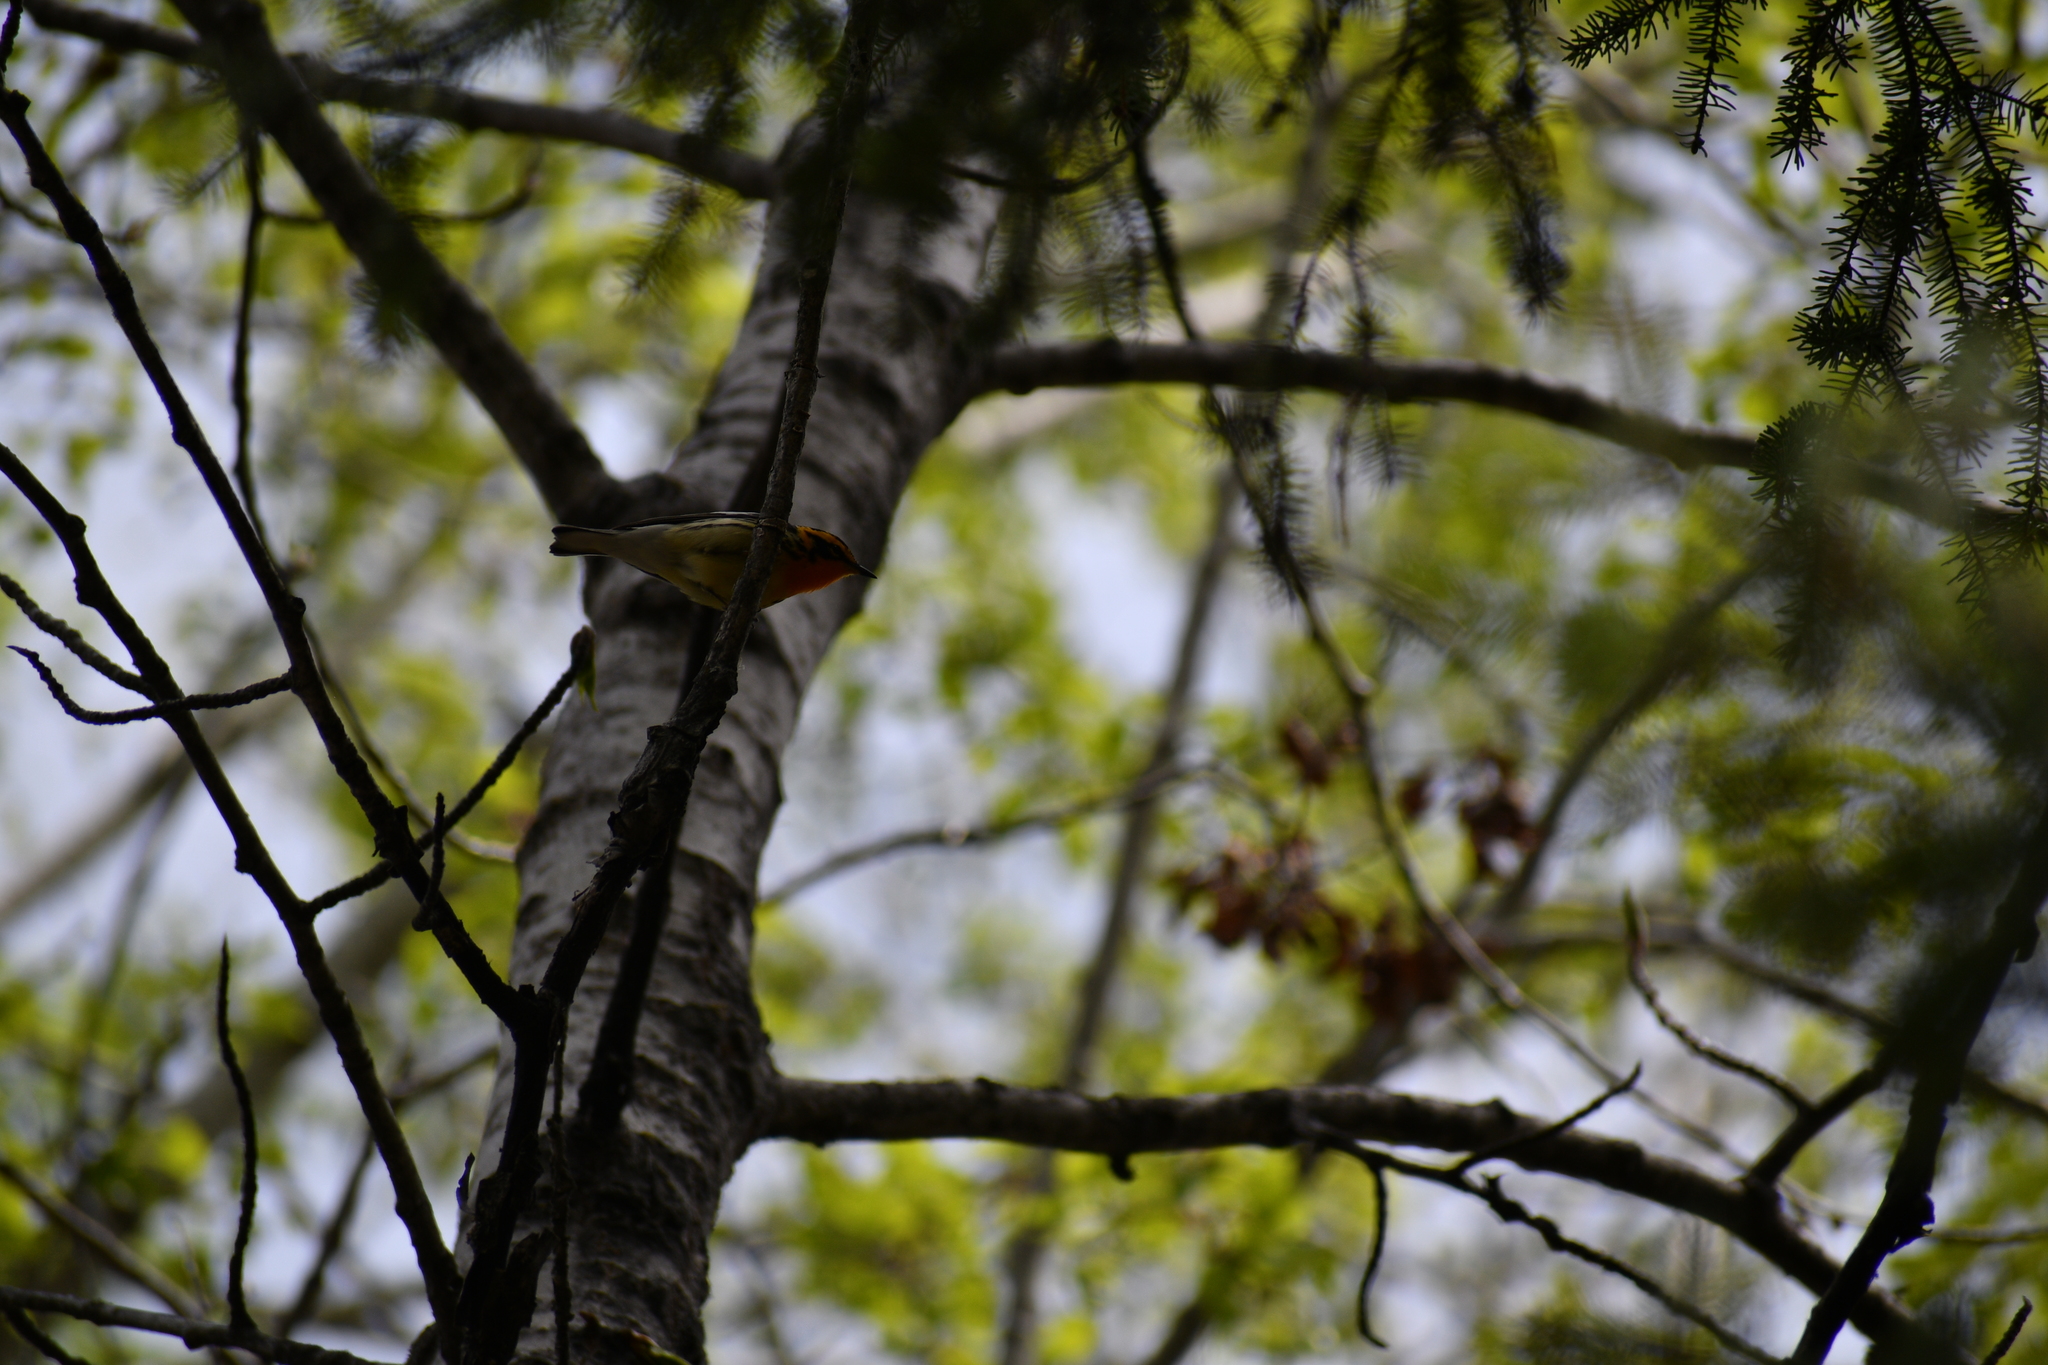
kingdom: Animalia
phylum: Chordata
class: Aves
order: Passeriformes
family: Parulidae
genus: Setophaga
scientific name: Setophaga fusca
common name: Blackburnian warbler
